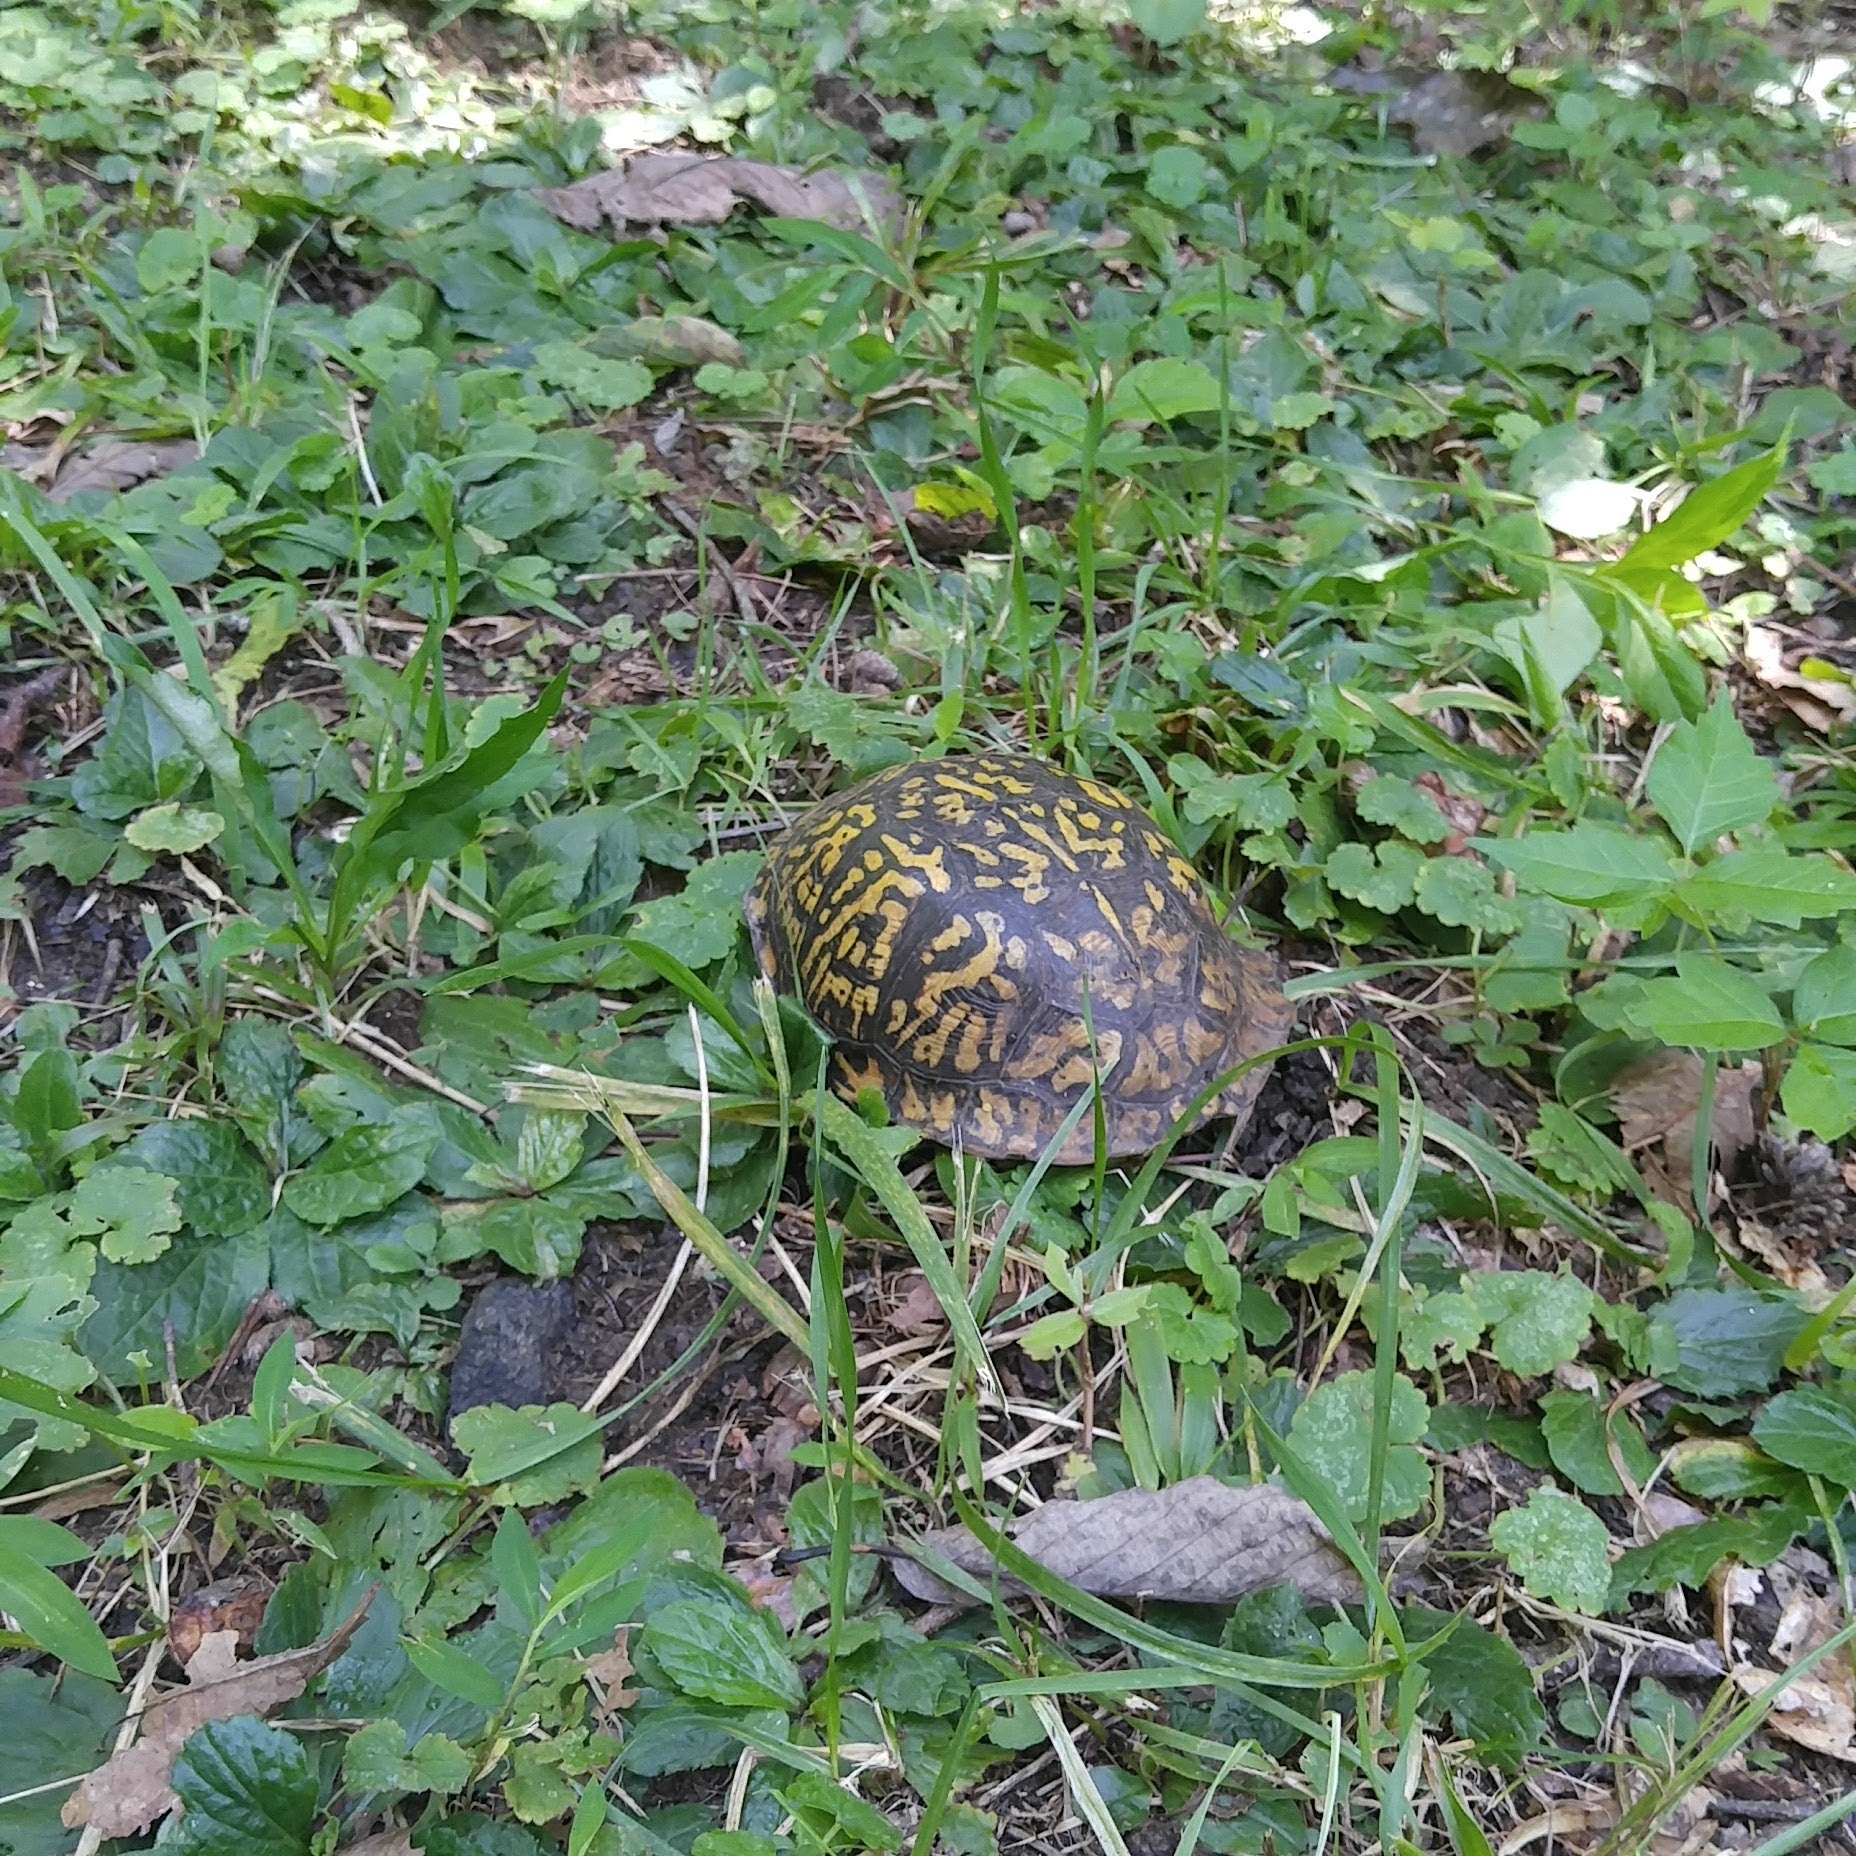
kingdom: Animalia
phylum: Chordata
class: Testudines
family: Emydidae
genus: Terrapene
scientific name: Terrapene carolina
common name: Common box turtle
